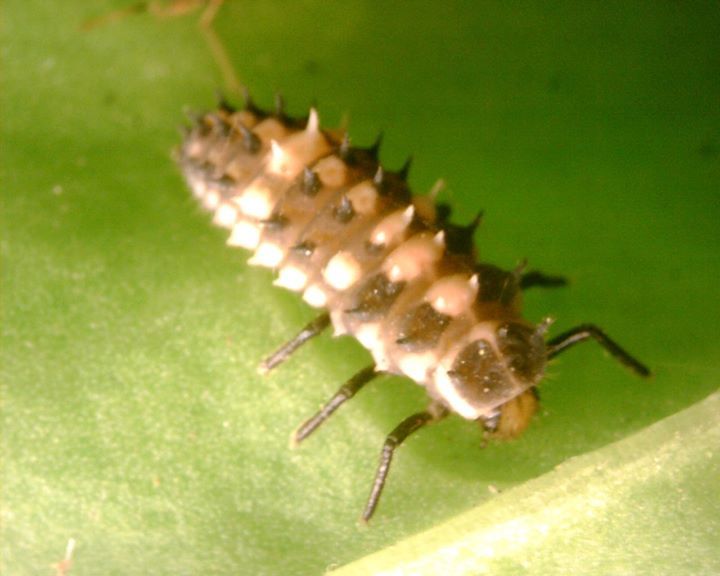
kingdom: Animalia
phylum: Arthropoda
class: Insecta
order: Coleoptera
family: Coccinellidae
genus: Cheilomenes
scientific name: Cheilomenes sexmaculata
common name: Ladybird beetle
